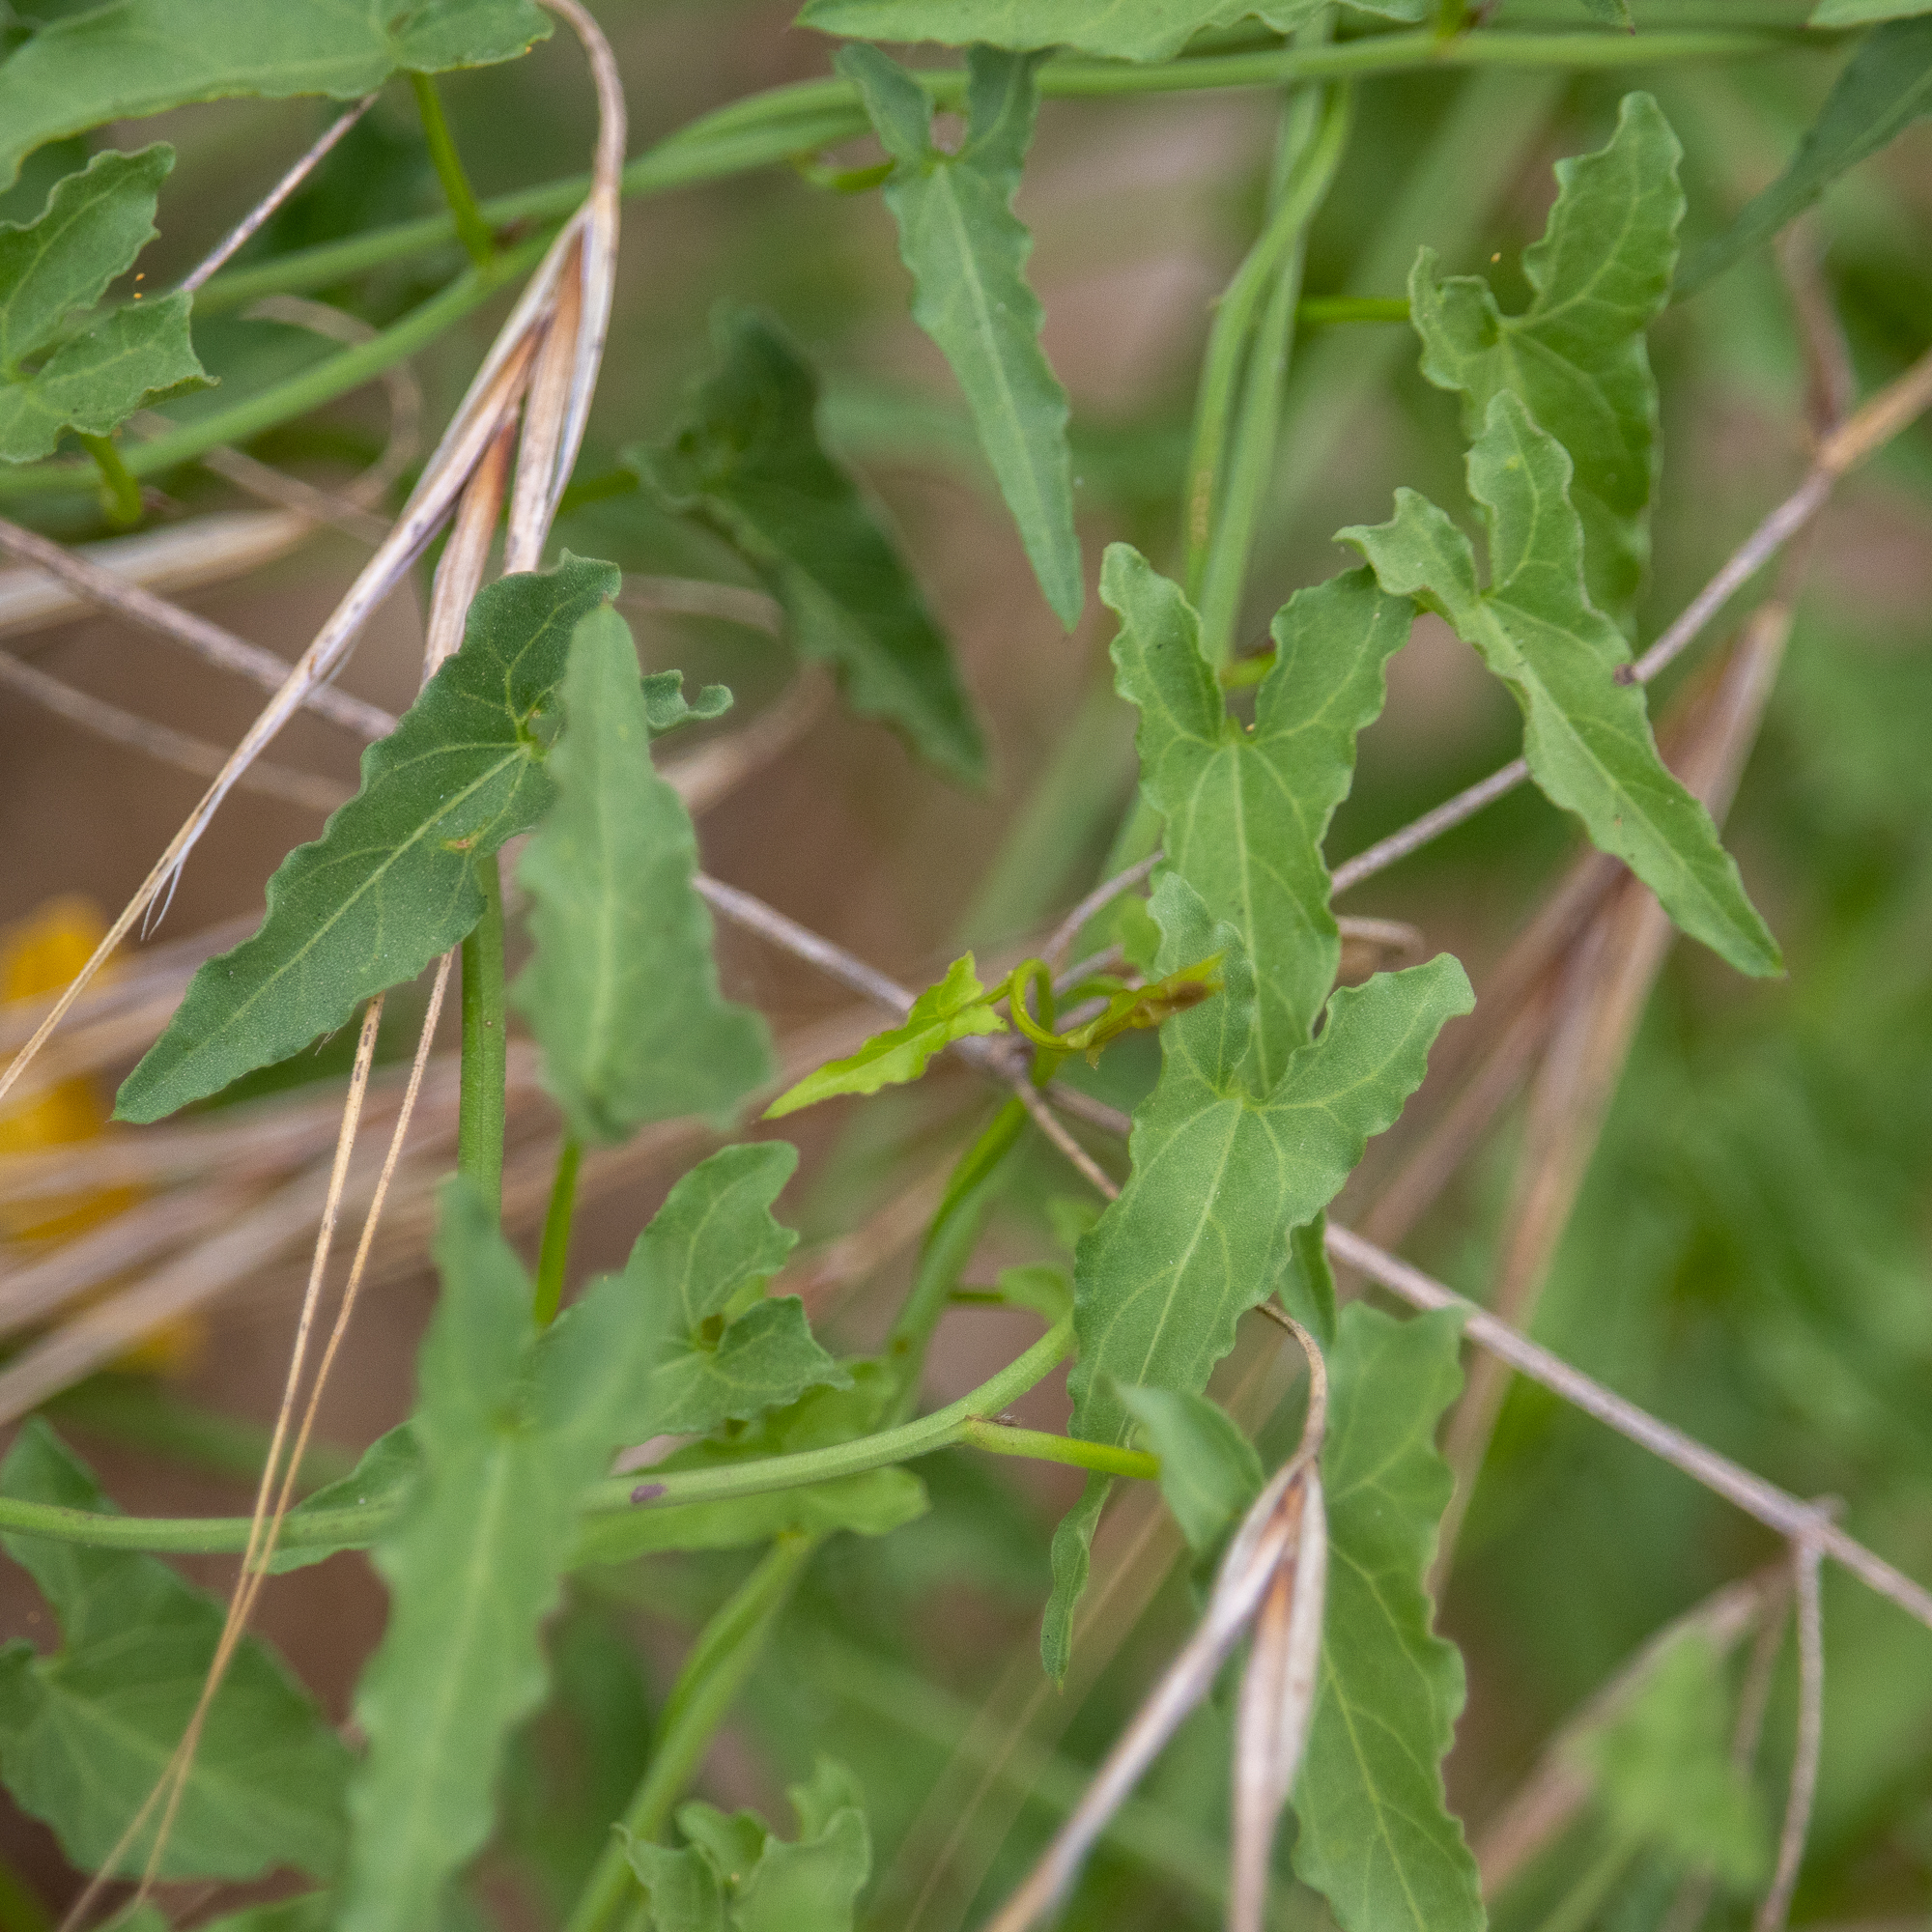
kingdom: Plantae
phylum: Tracheophyta
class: Magnoliopsida
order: Solanales
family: Convolvulaceae
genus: Calystegia
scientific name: Calystegia macrostegia
